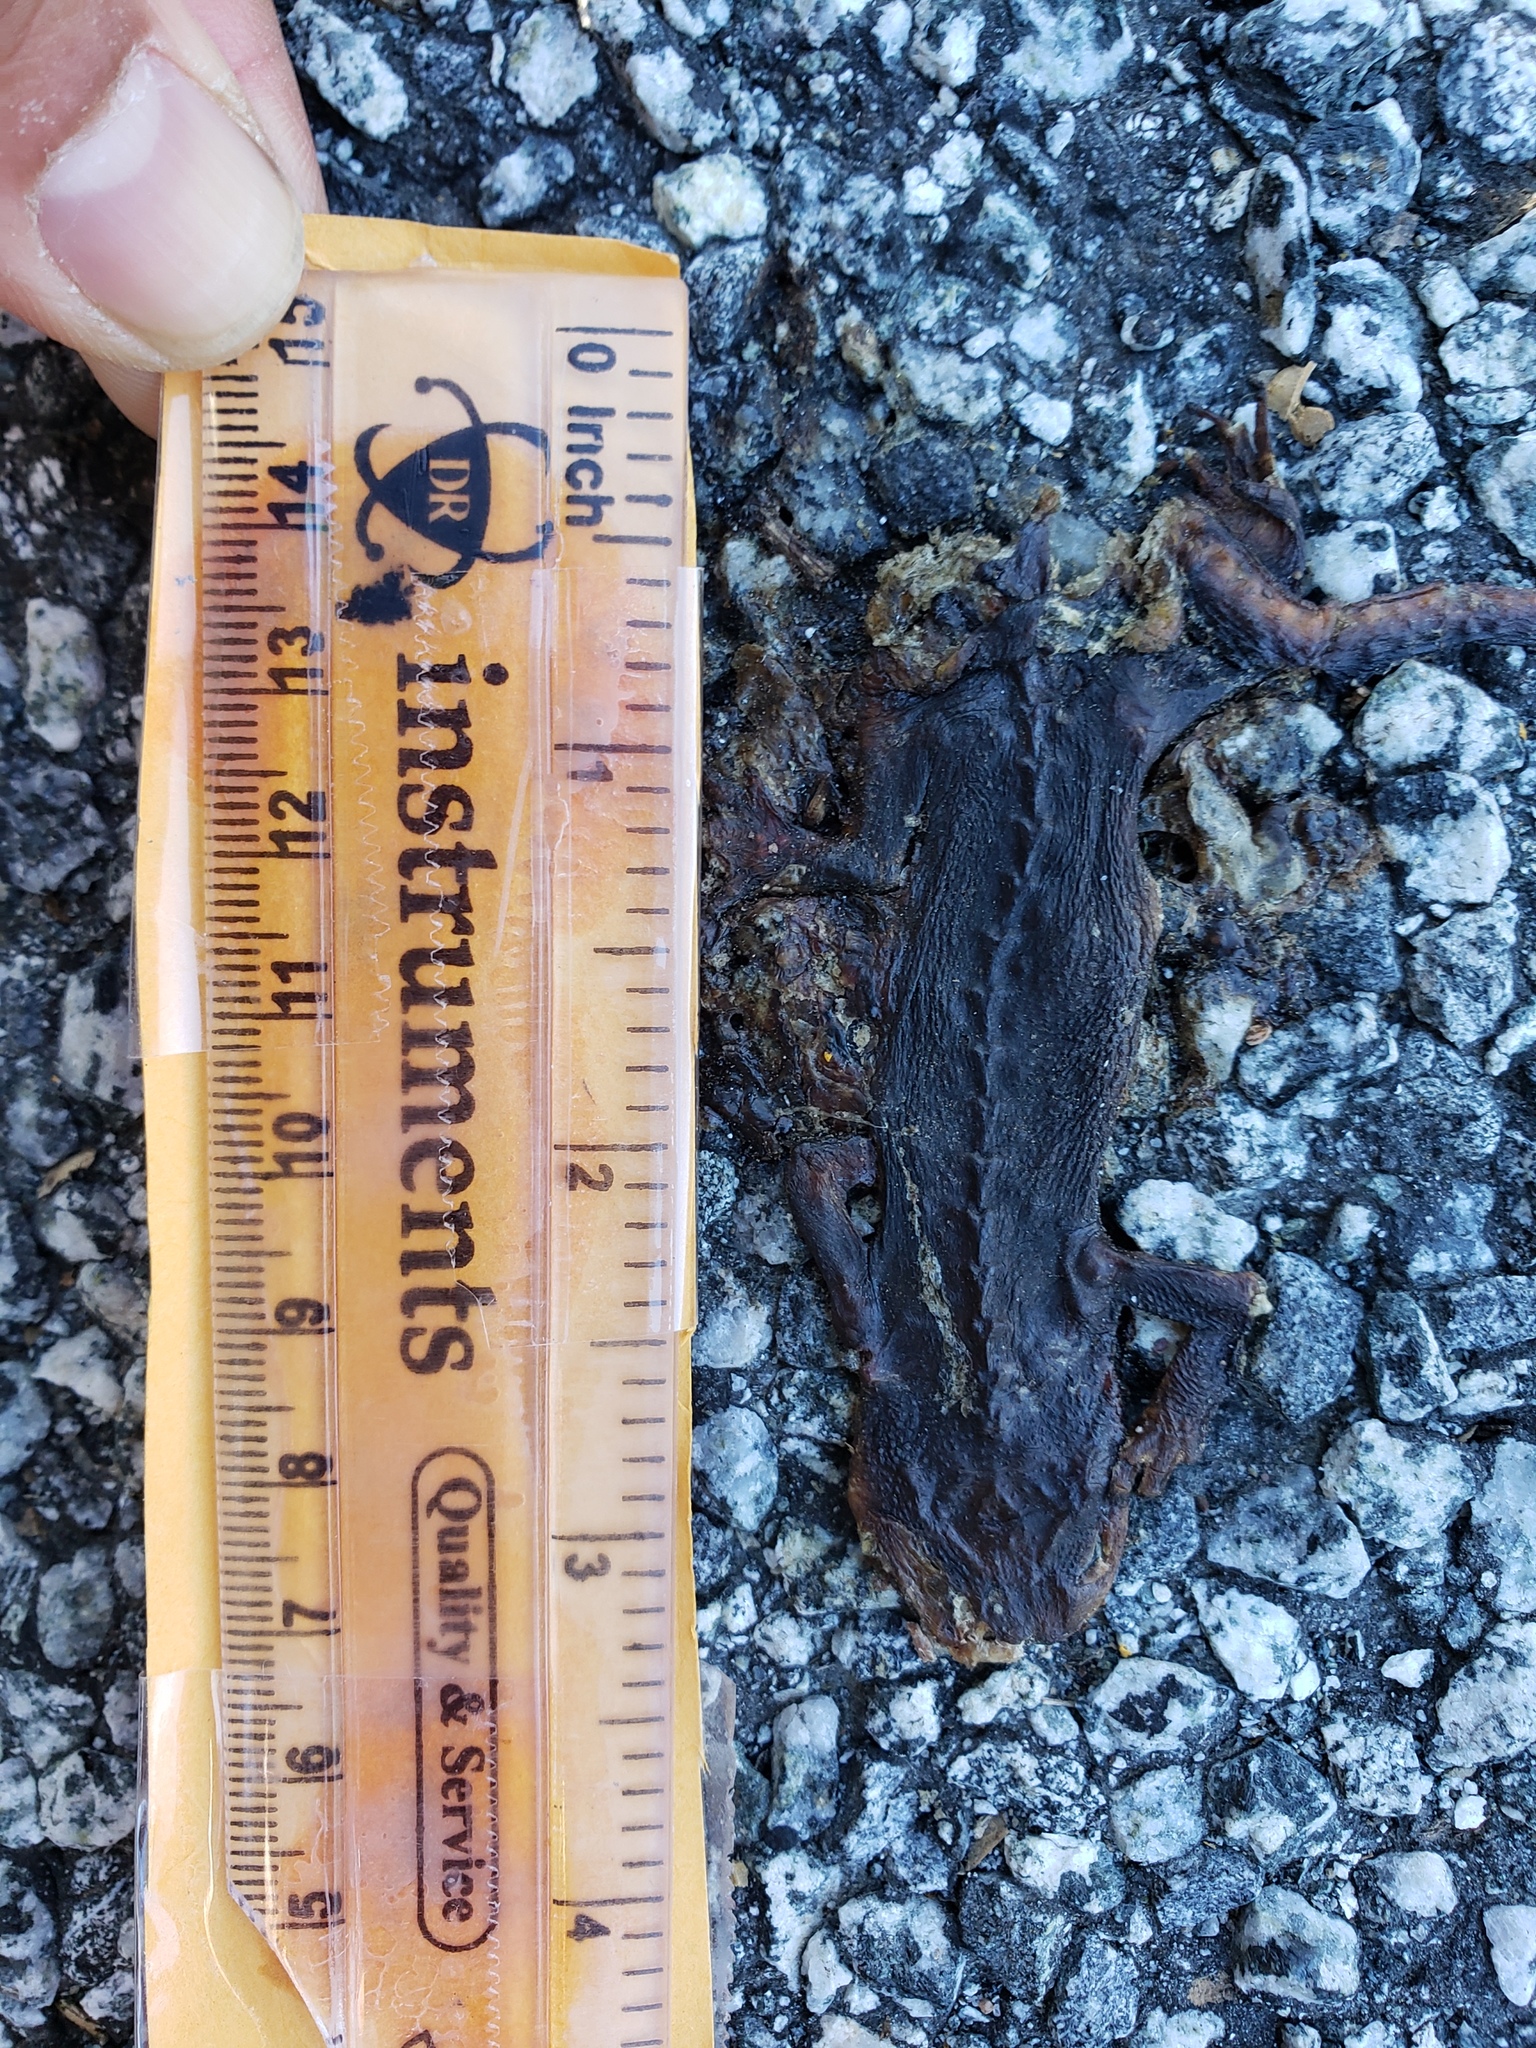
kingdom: Animalia
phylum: Chordata
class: Amphibia
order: Caudata
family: Salamandridae
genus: Taricha
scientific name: Taricha
